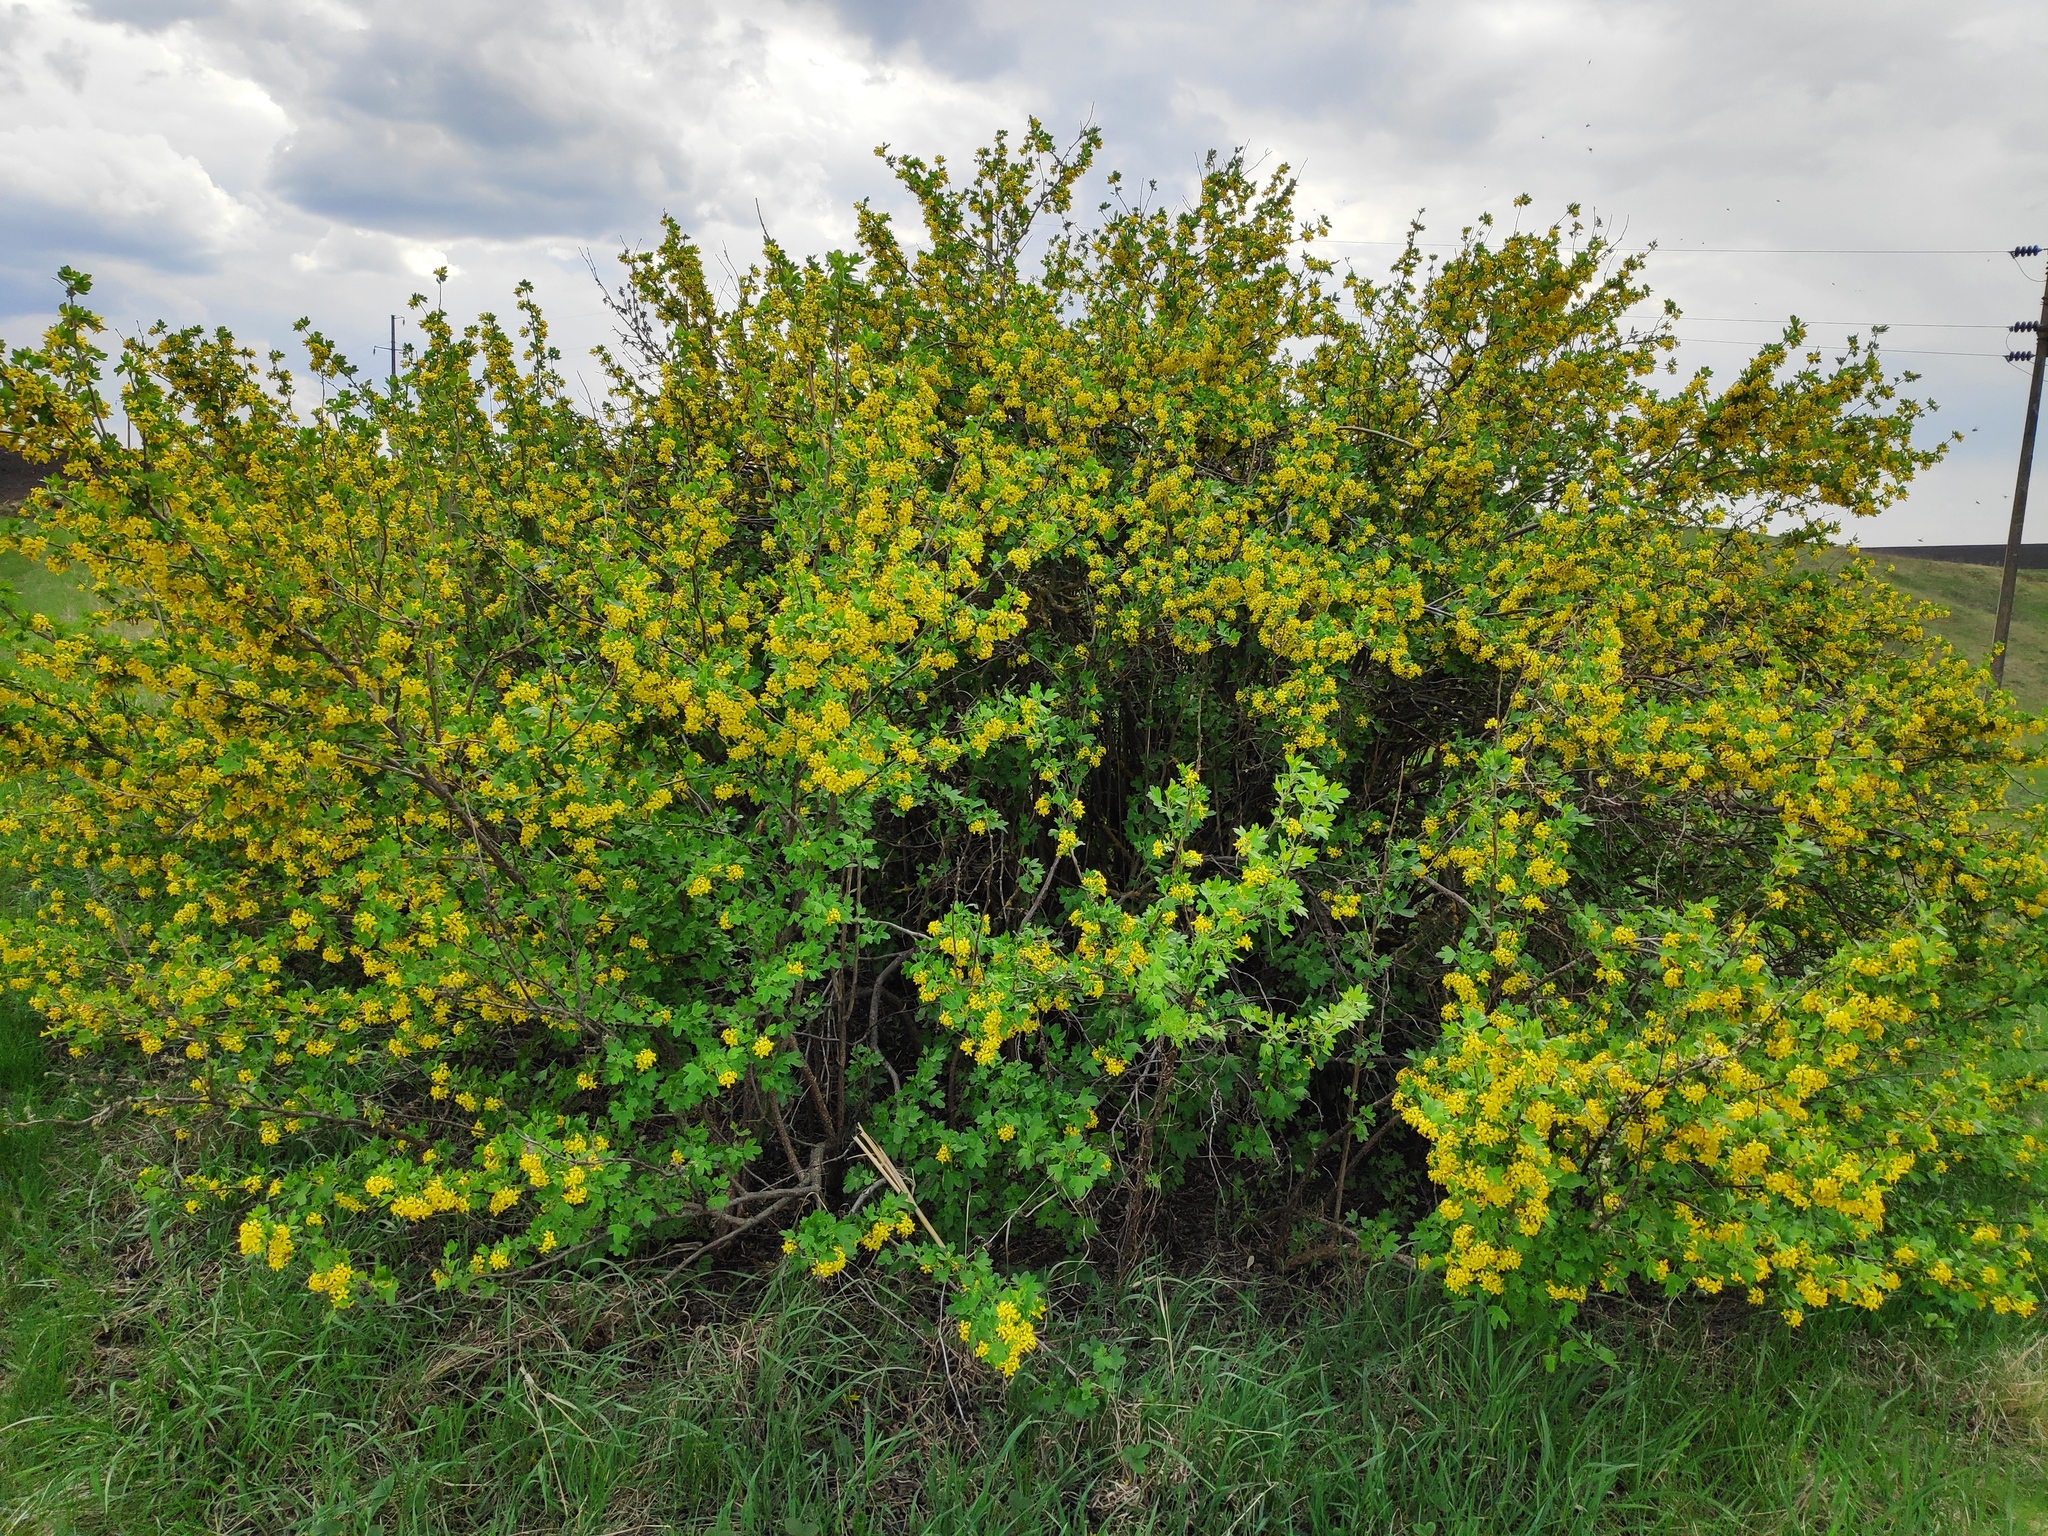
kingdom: Plantae
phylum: Tracheophyta
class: Magnoliopsida
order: Saxifragales
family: Grossulariaceae
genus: Ribes
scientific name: Ribes aureum
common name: Golden currant
